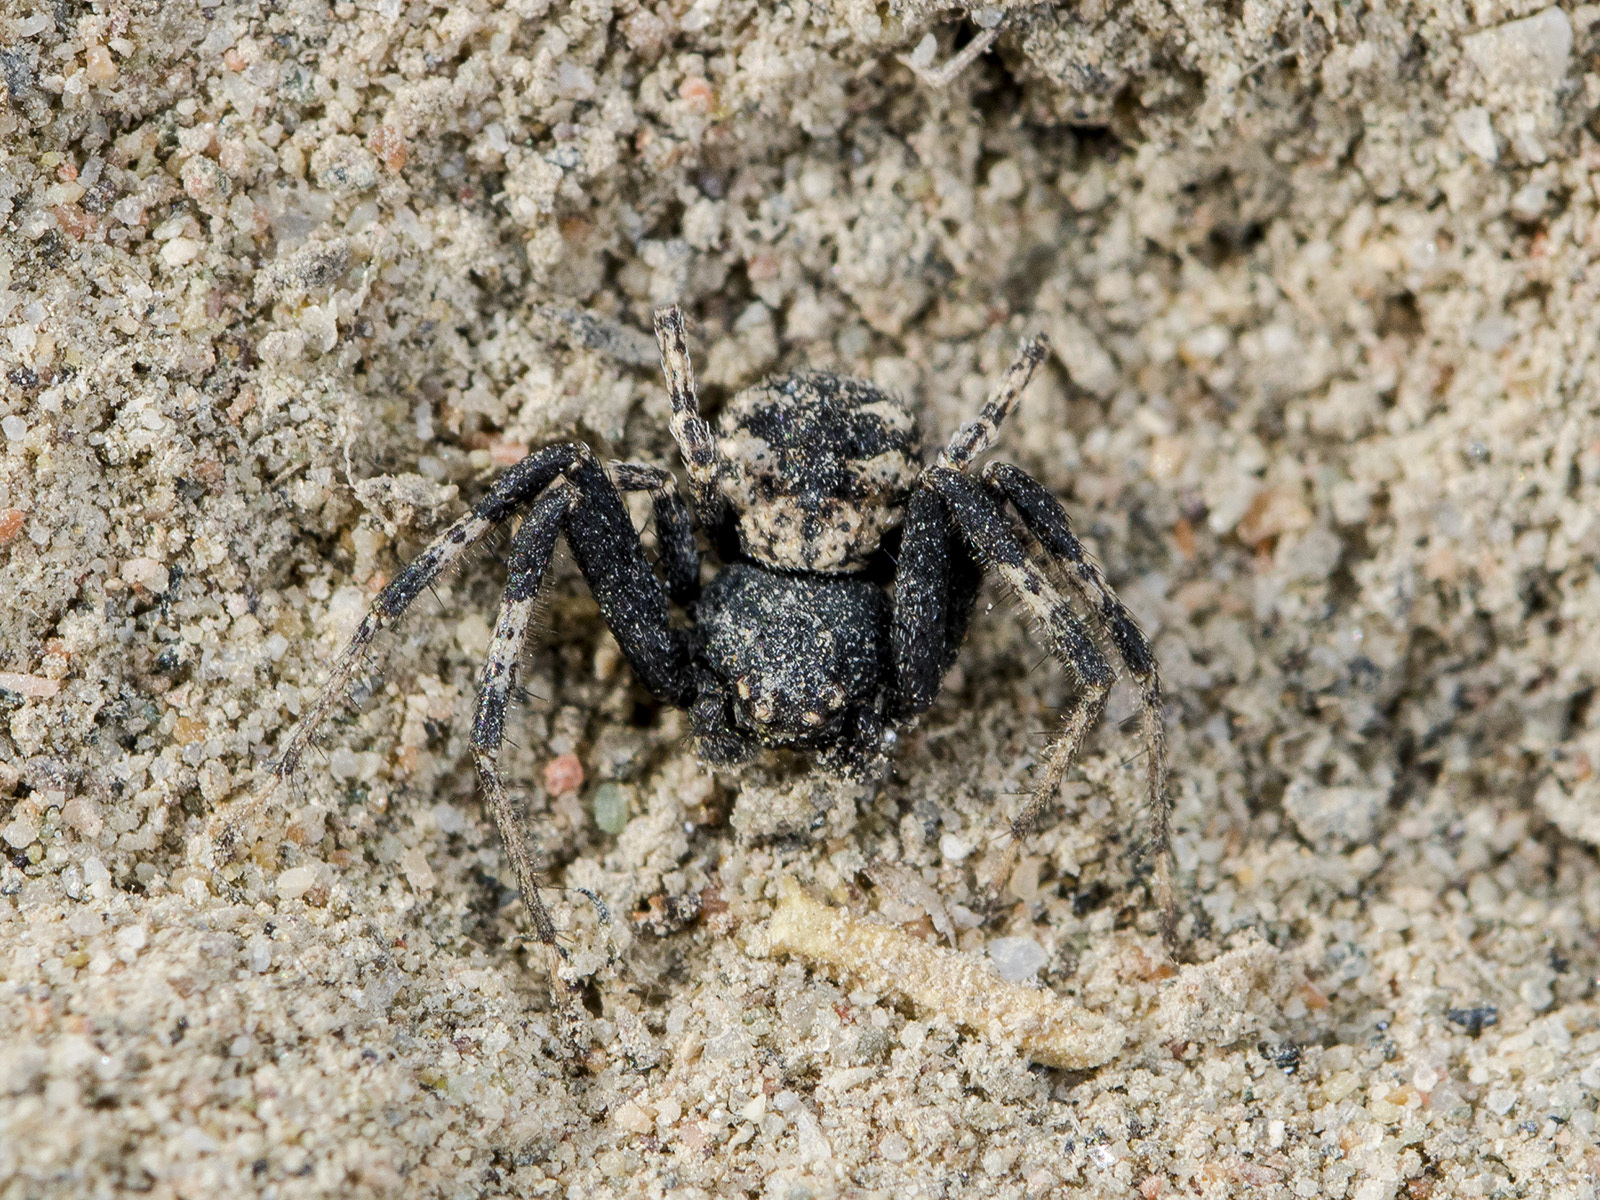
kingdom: Animalia
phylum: Arthropoda
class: Arachnida
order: Araneae
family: Thomisidae
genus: Ozyptila
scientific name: Ozyptila lugubris
